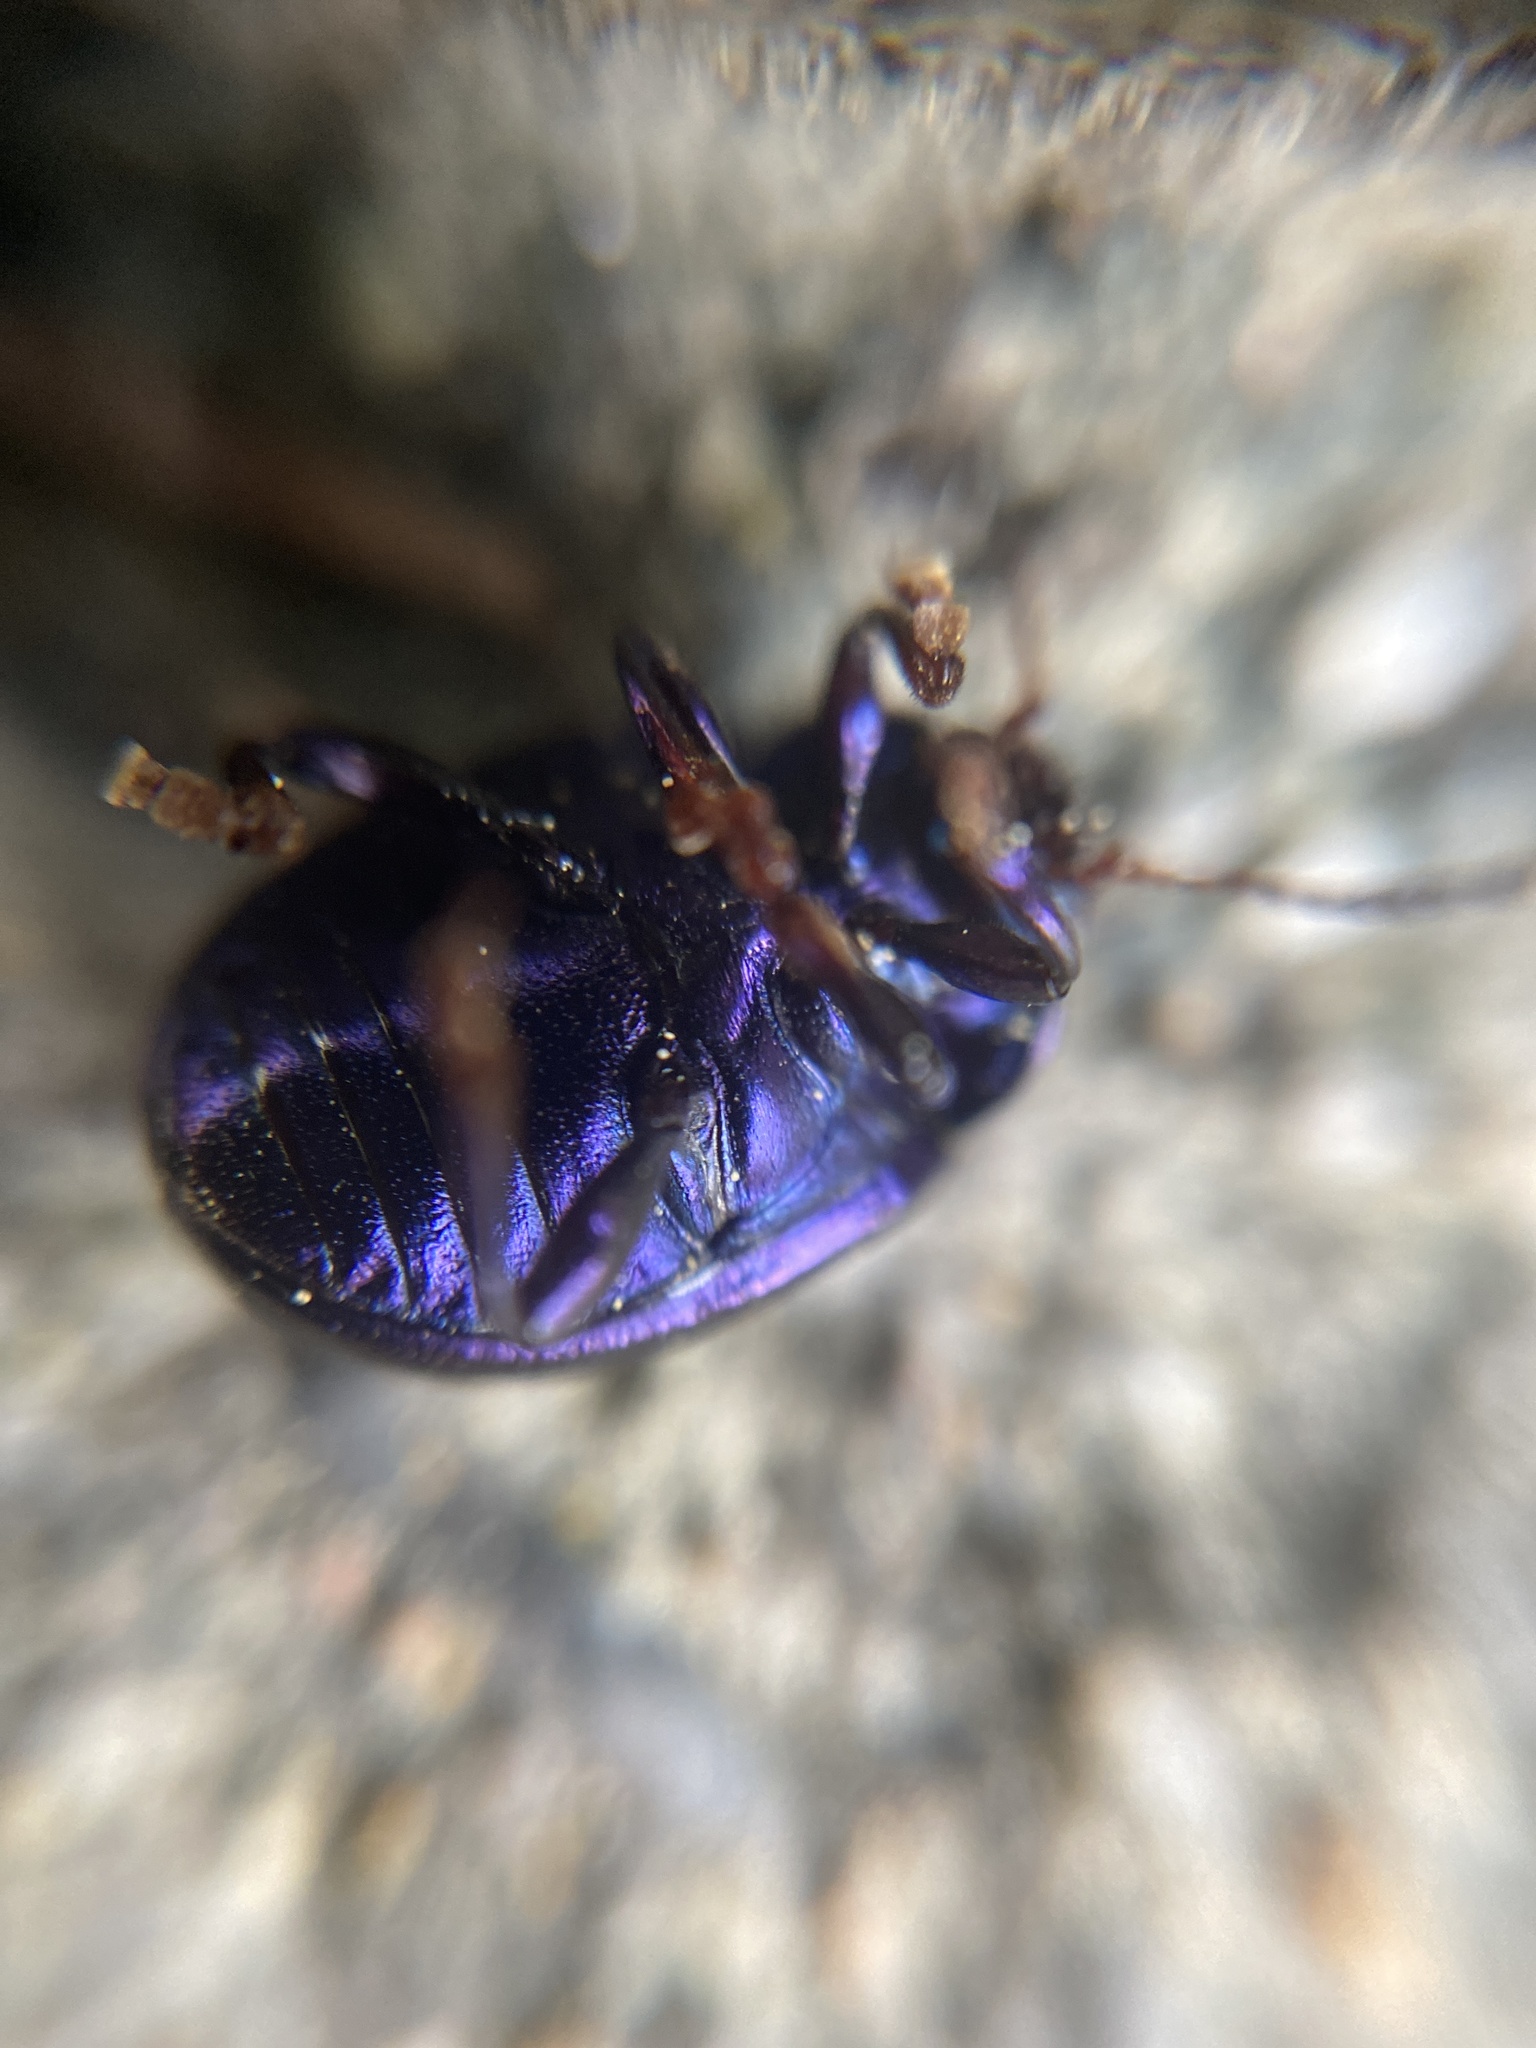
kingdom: Animalia
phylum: Arthropoda
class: Insecta
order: Coleoptera
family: Chrysomelidae
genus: Chrysolina
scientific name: Chrysolina sturmi
